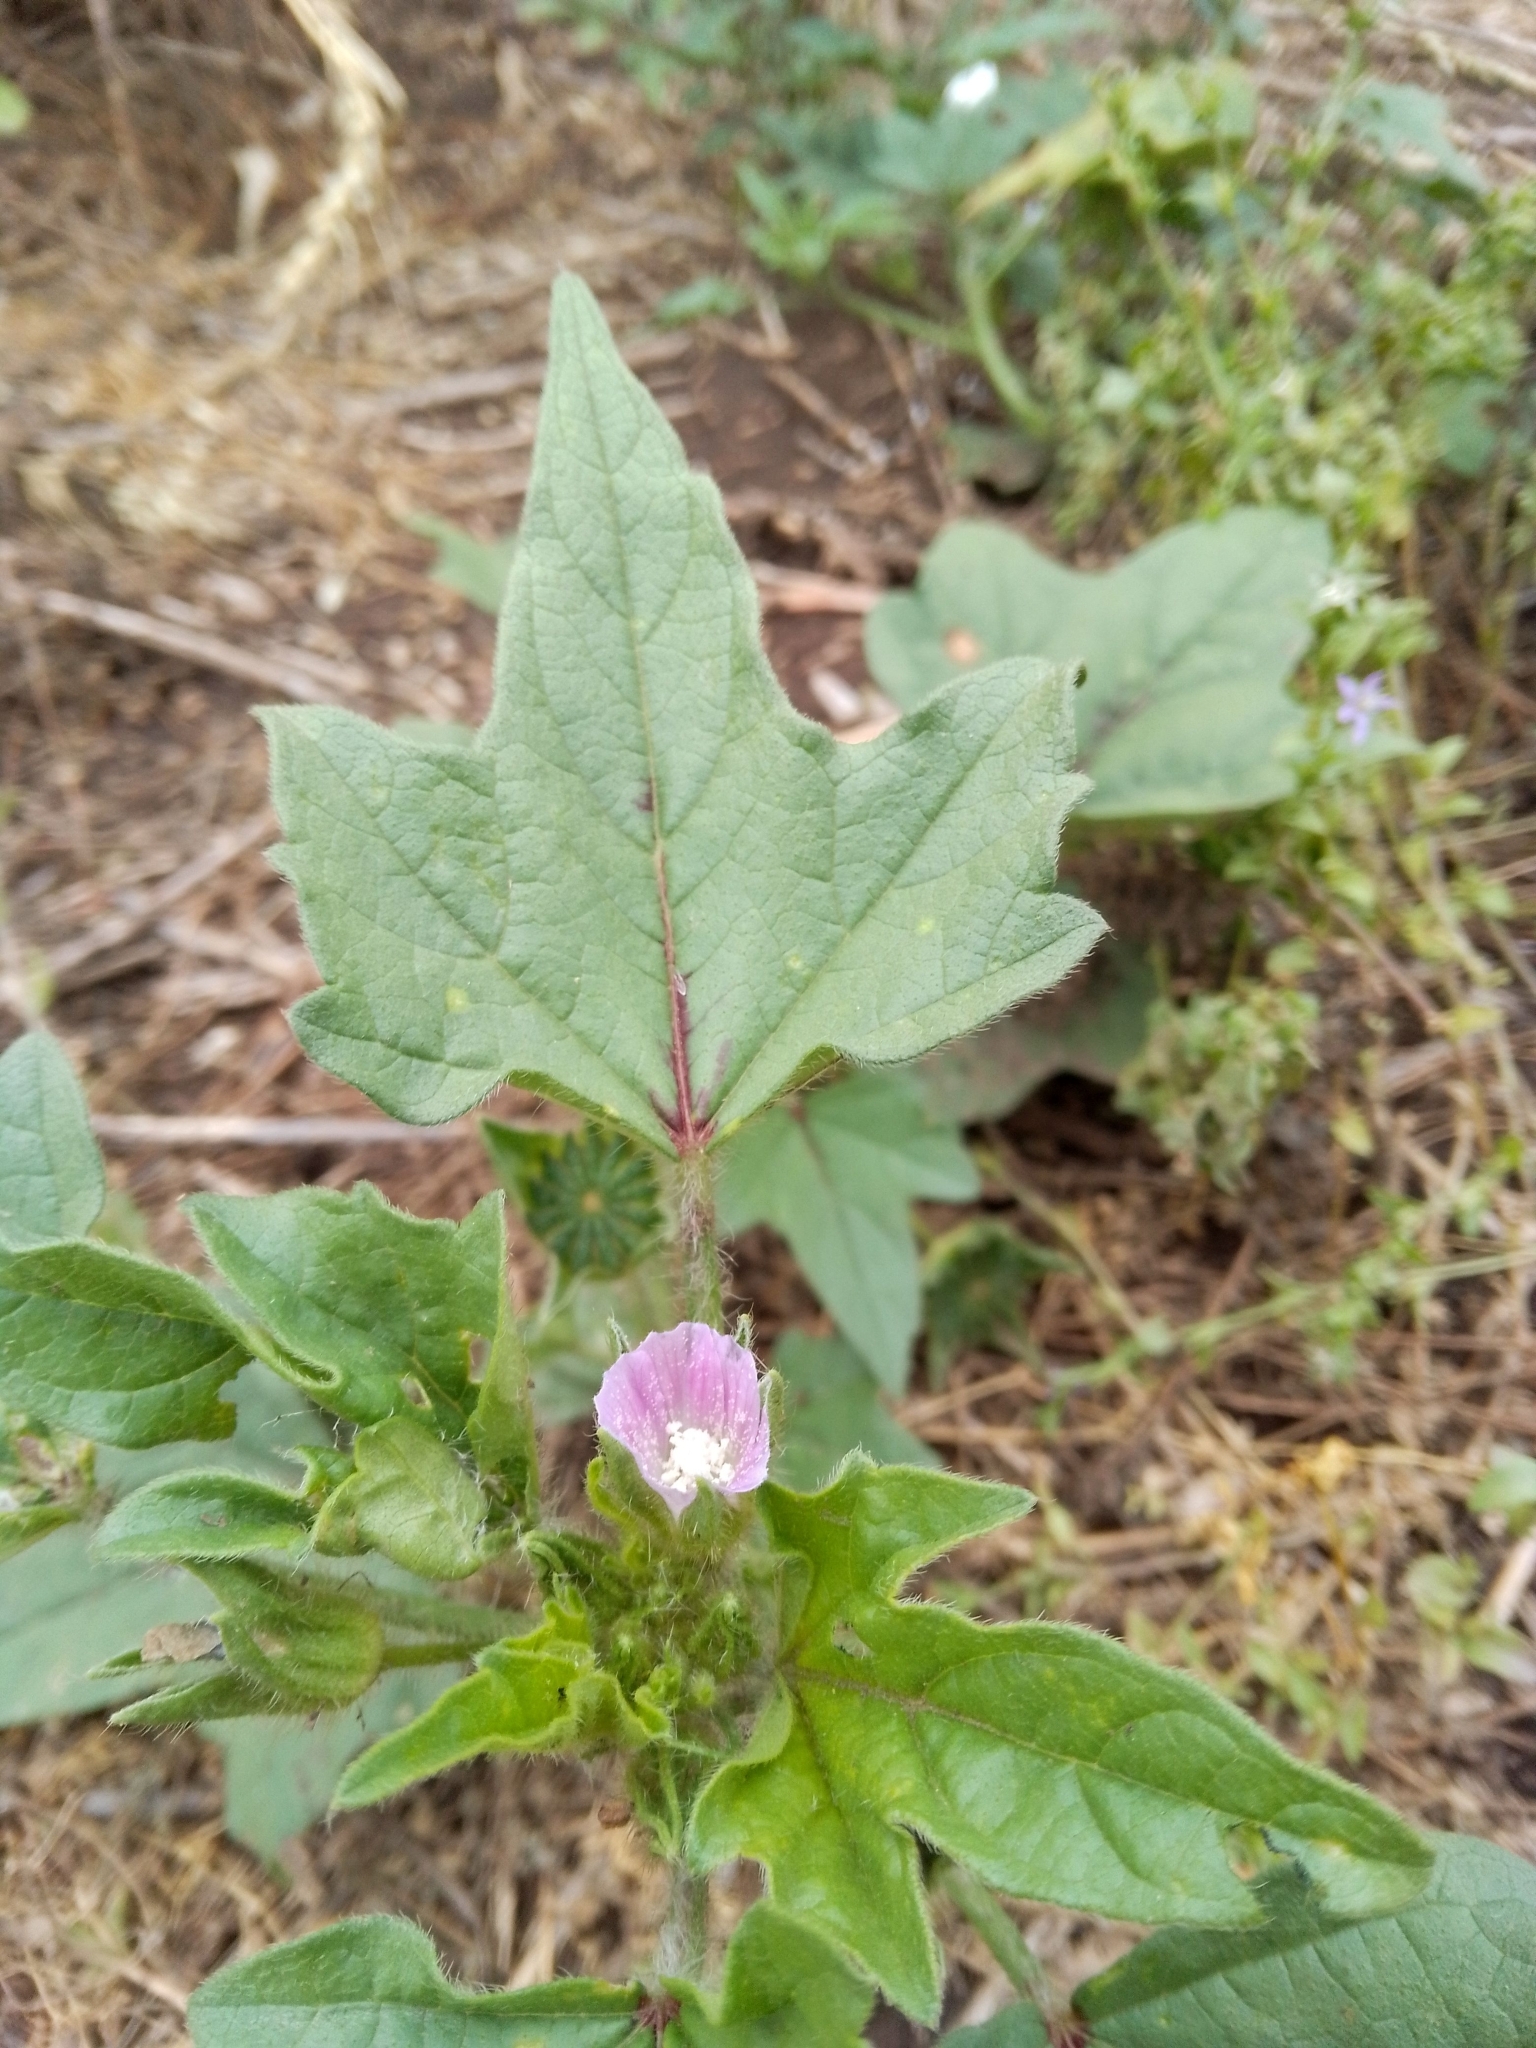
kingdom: Plantae
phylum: Tracheophyta
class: Magnoliopsida
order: Malvales
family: Malvaceae
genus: Anoda
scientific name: Anoda cristata
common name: Spurred anoda
